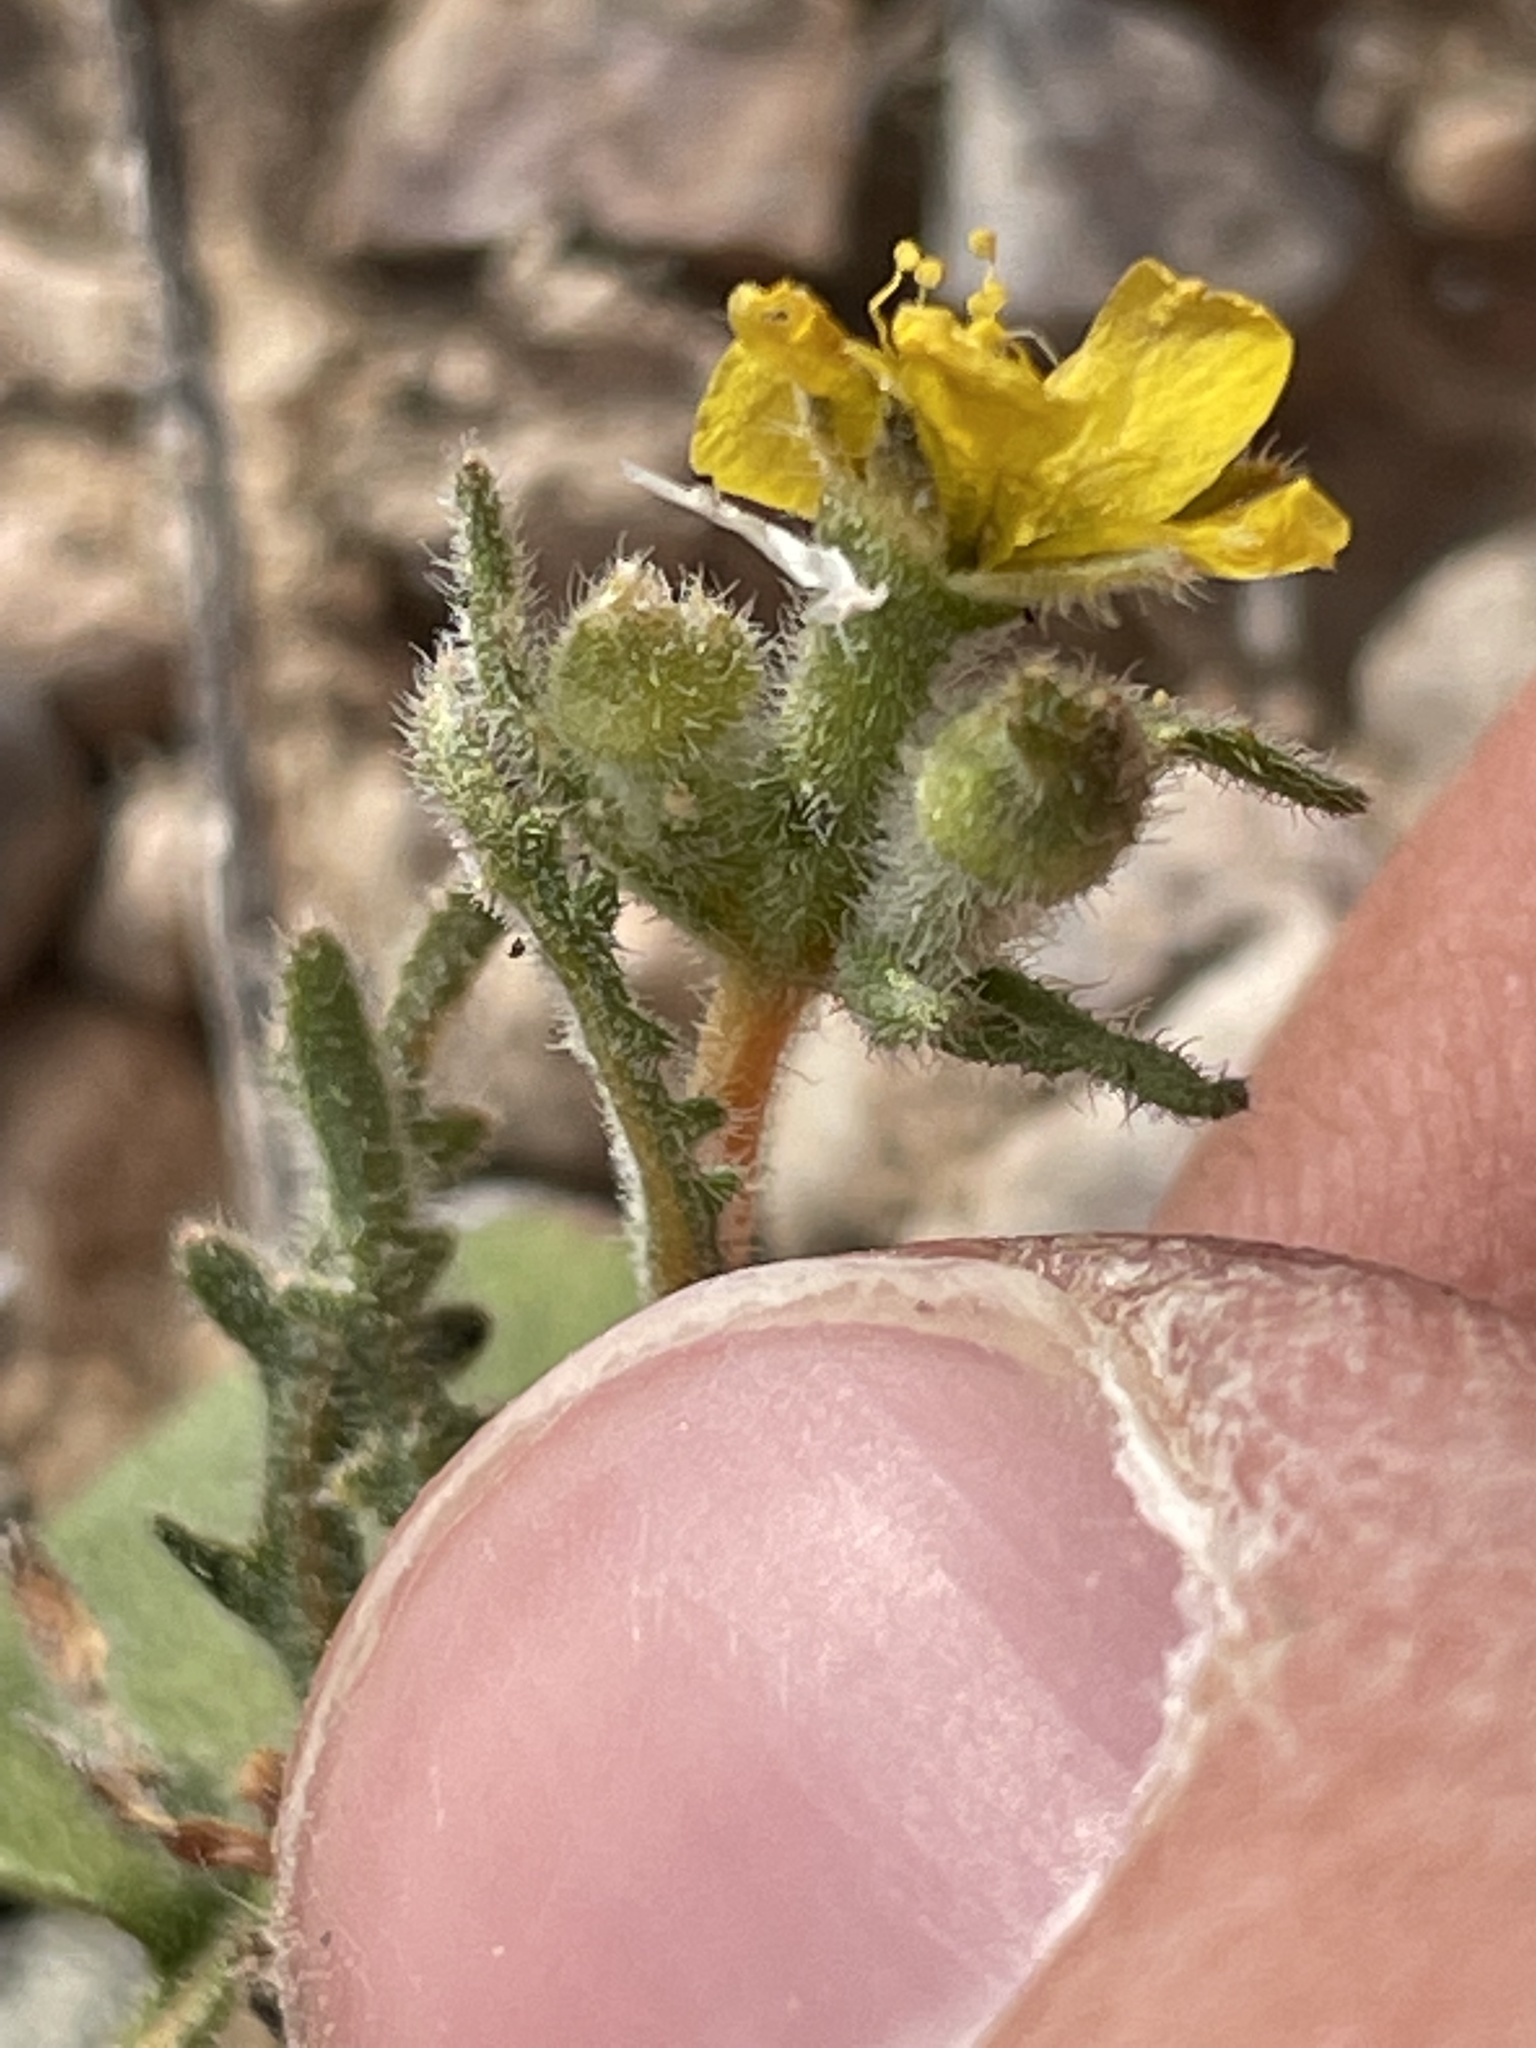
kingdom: Plantae
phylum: Tracheophyta
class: Magnoliopsida
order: Cornales
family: Loasaceae
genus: Mentzelia
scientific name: Mentzelia albicaulis
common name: White-stem blazingstar
